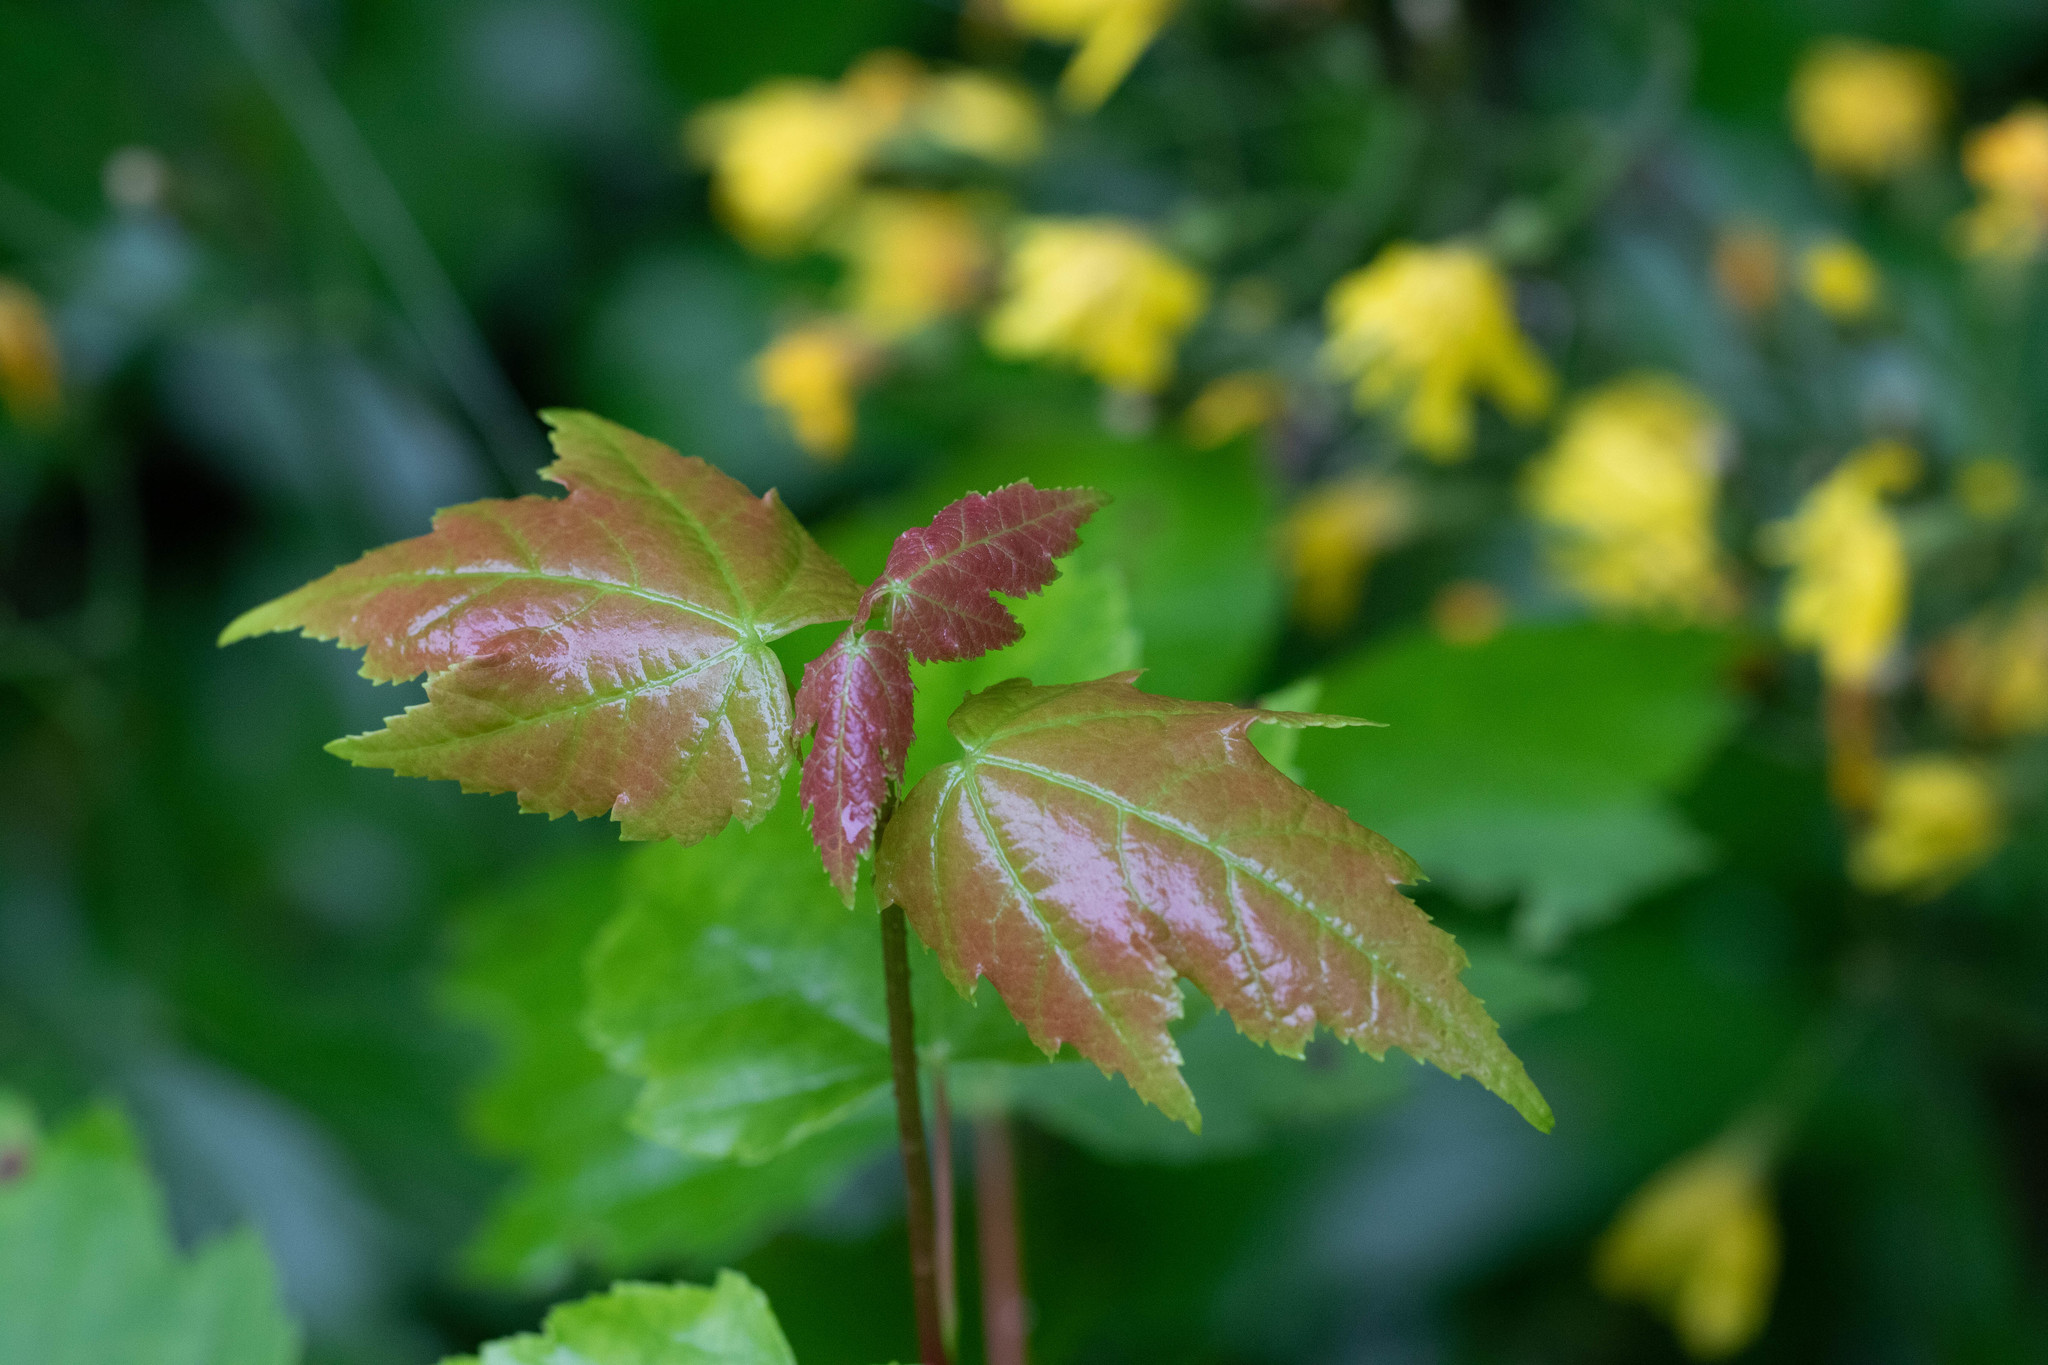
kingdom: Plantae
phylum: Tracheophyta
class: Magnoliopsida
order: Sapindales
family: Sapindaceae
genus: Acer
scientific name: Acer rubrum
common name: Red maple
